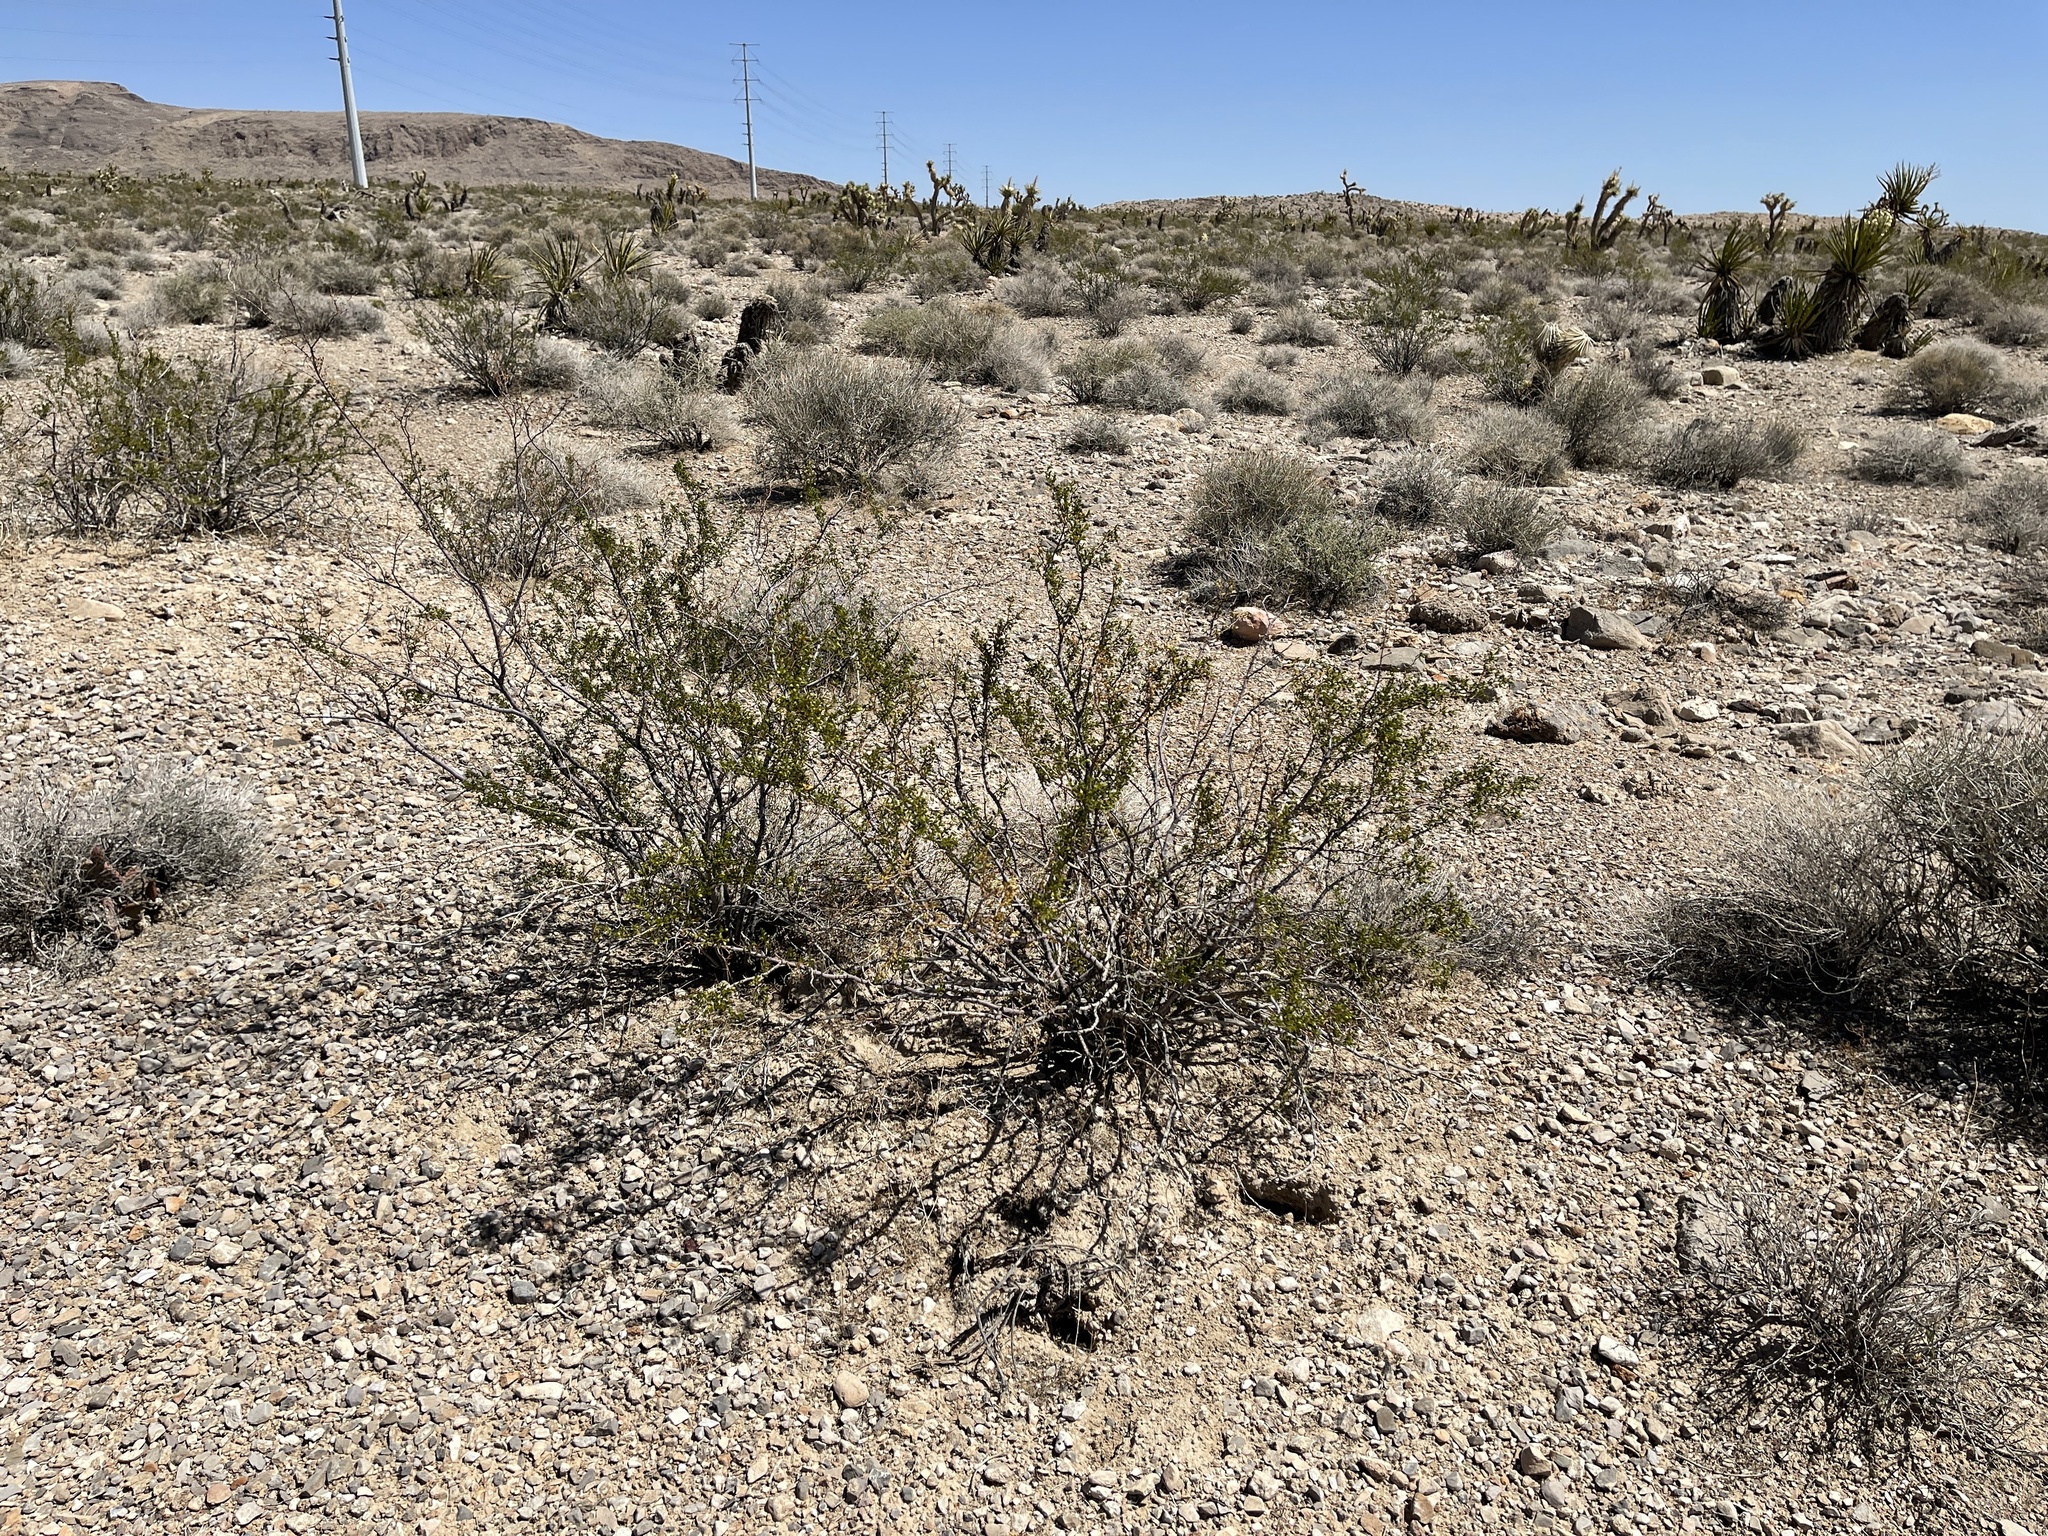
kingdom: Plantae
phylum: Tracheophyta
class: Magnoliopsida
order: Zygophyllales
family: Zygophyllaceae
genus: Larrea
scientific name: Larrea tridentata
